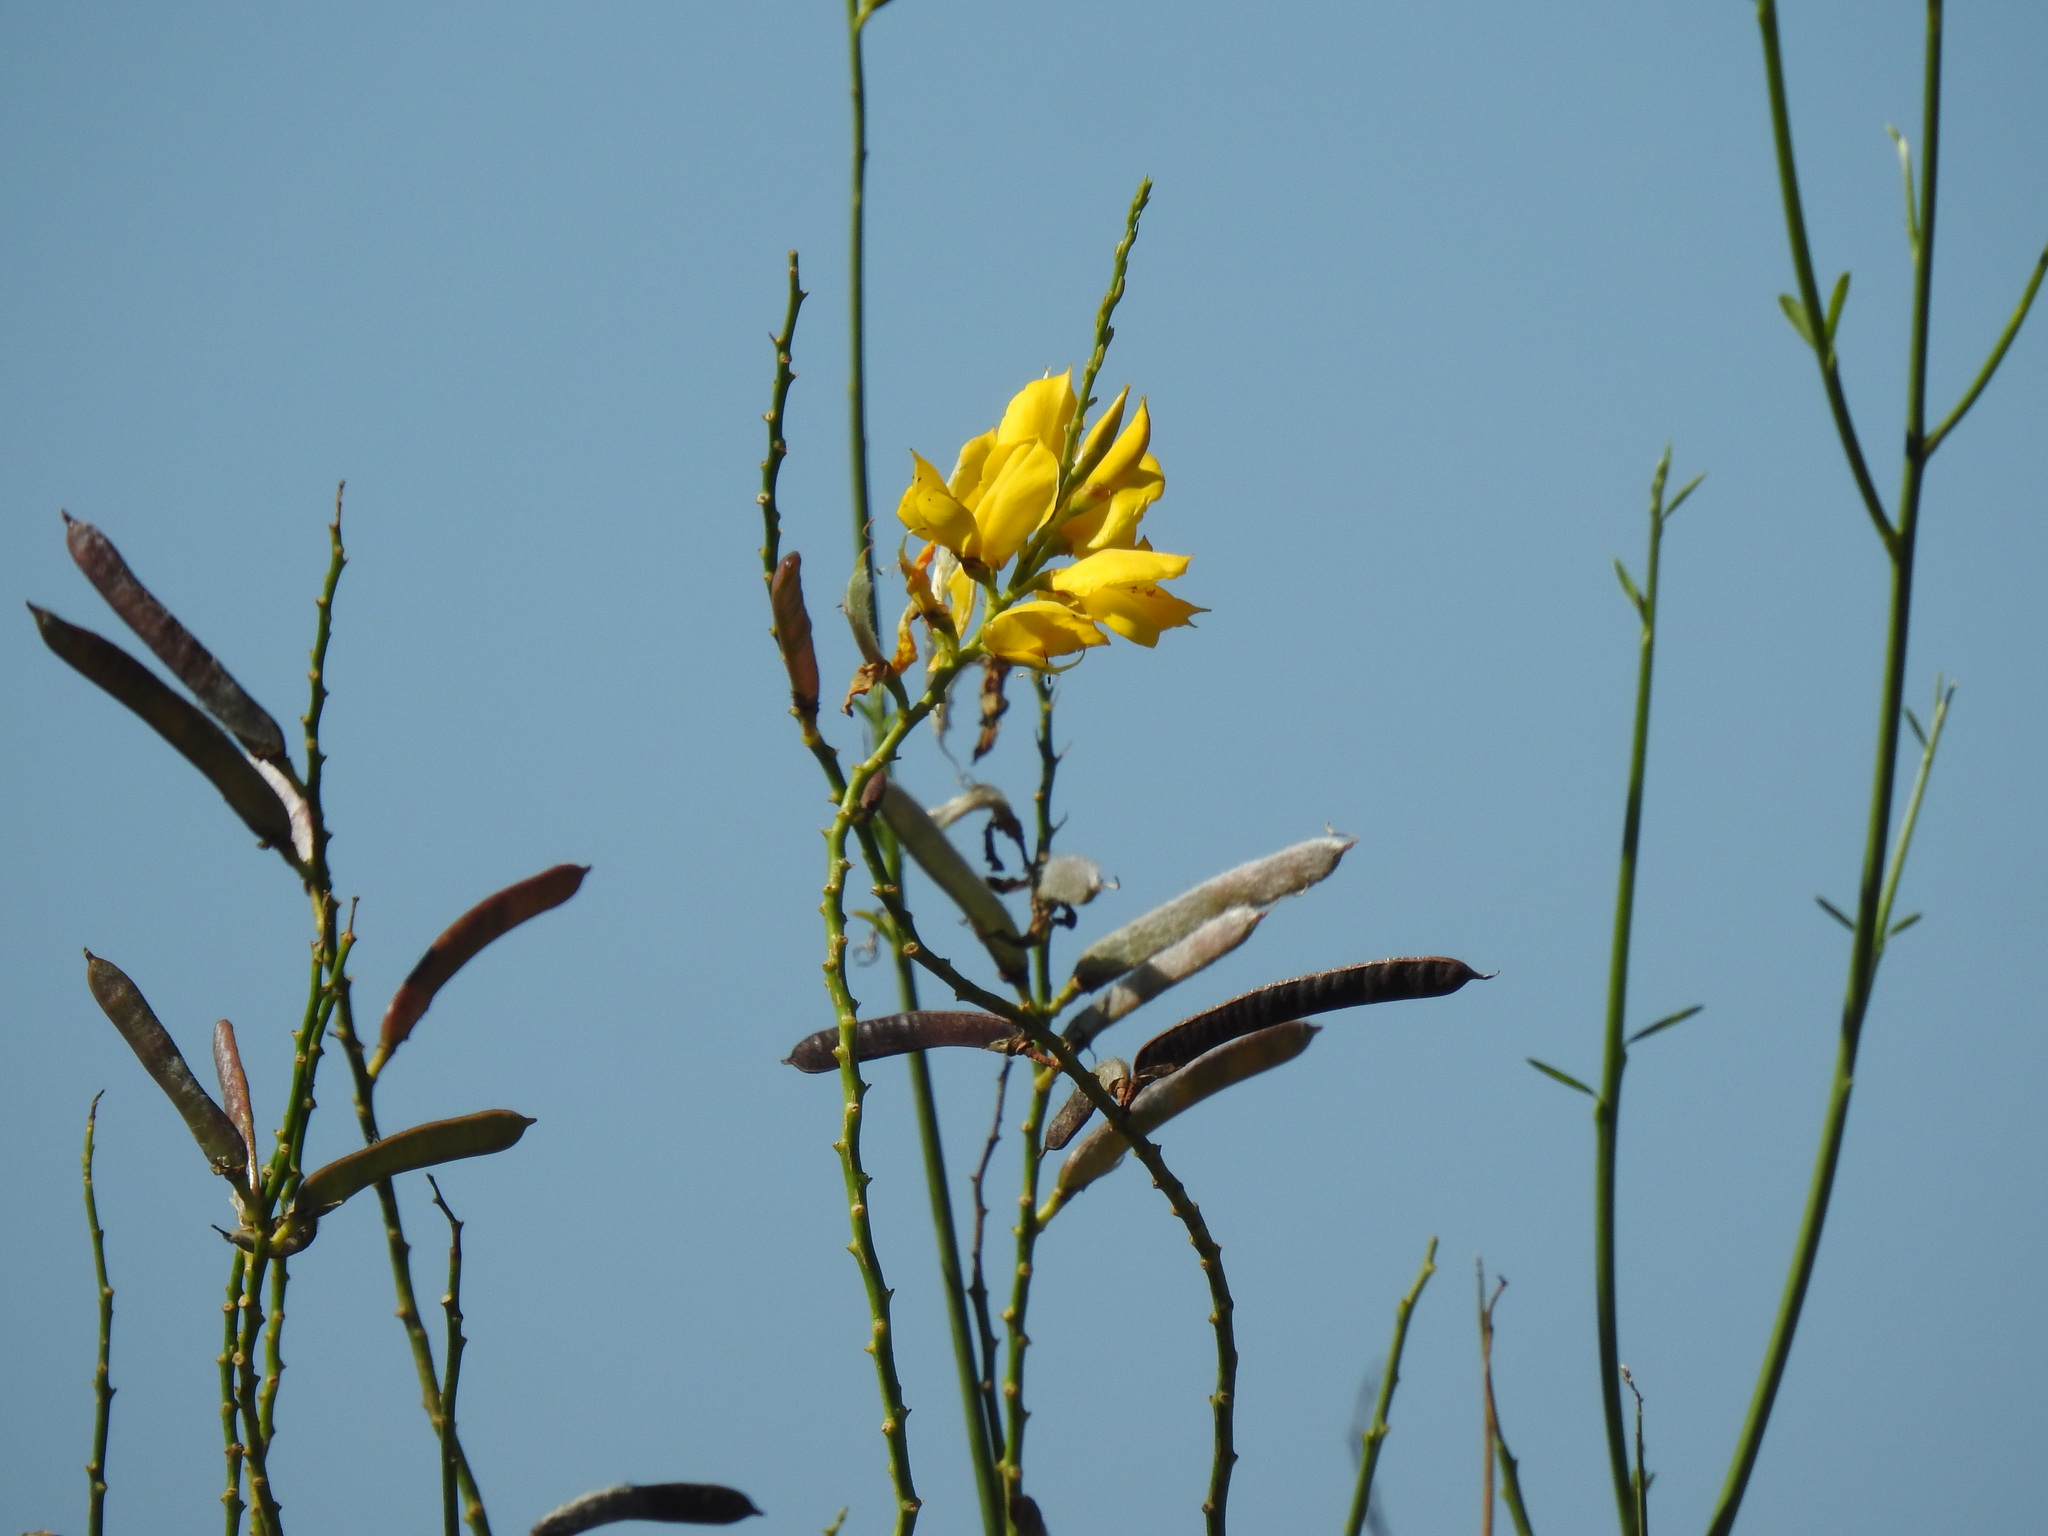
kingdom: Plantae
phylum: Tracheophyta
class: Magnoliopsida
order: Fabales
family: Fabaceae
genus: Spartium
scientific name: Spartium junceum
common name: Spanish broom
